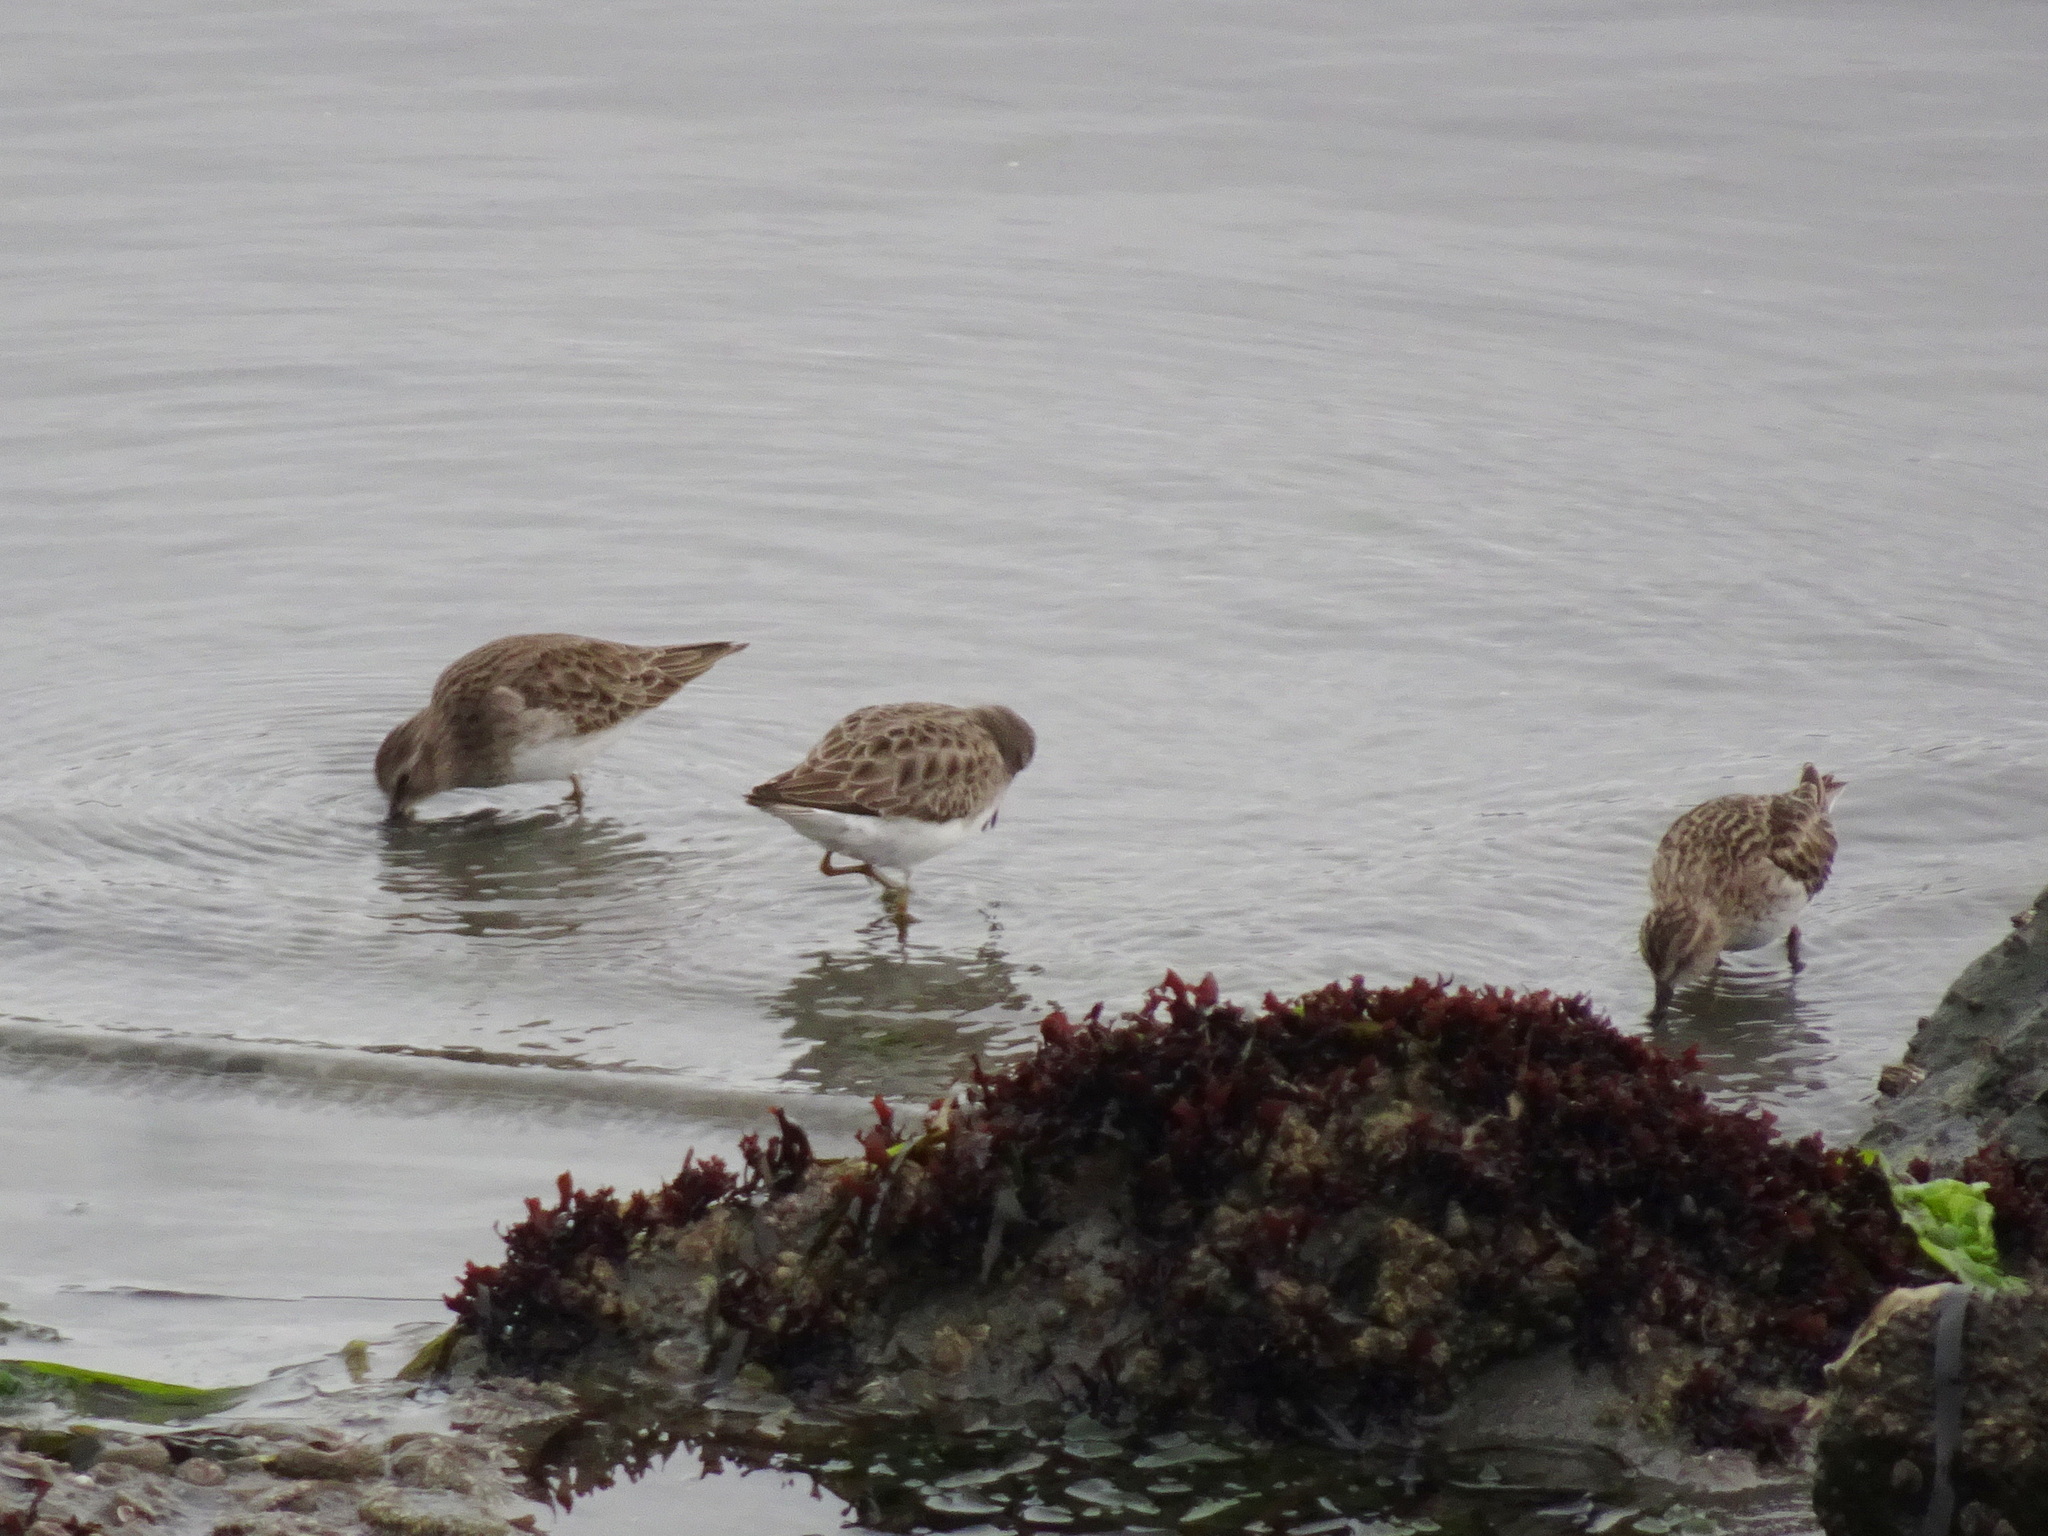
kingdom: Animalia
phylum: Chordata
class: Aves
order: Charadriiformes
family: Scolopacidae
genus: Calidris
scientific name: Calidris minutilla
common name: Least sandpiper
